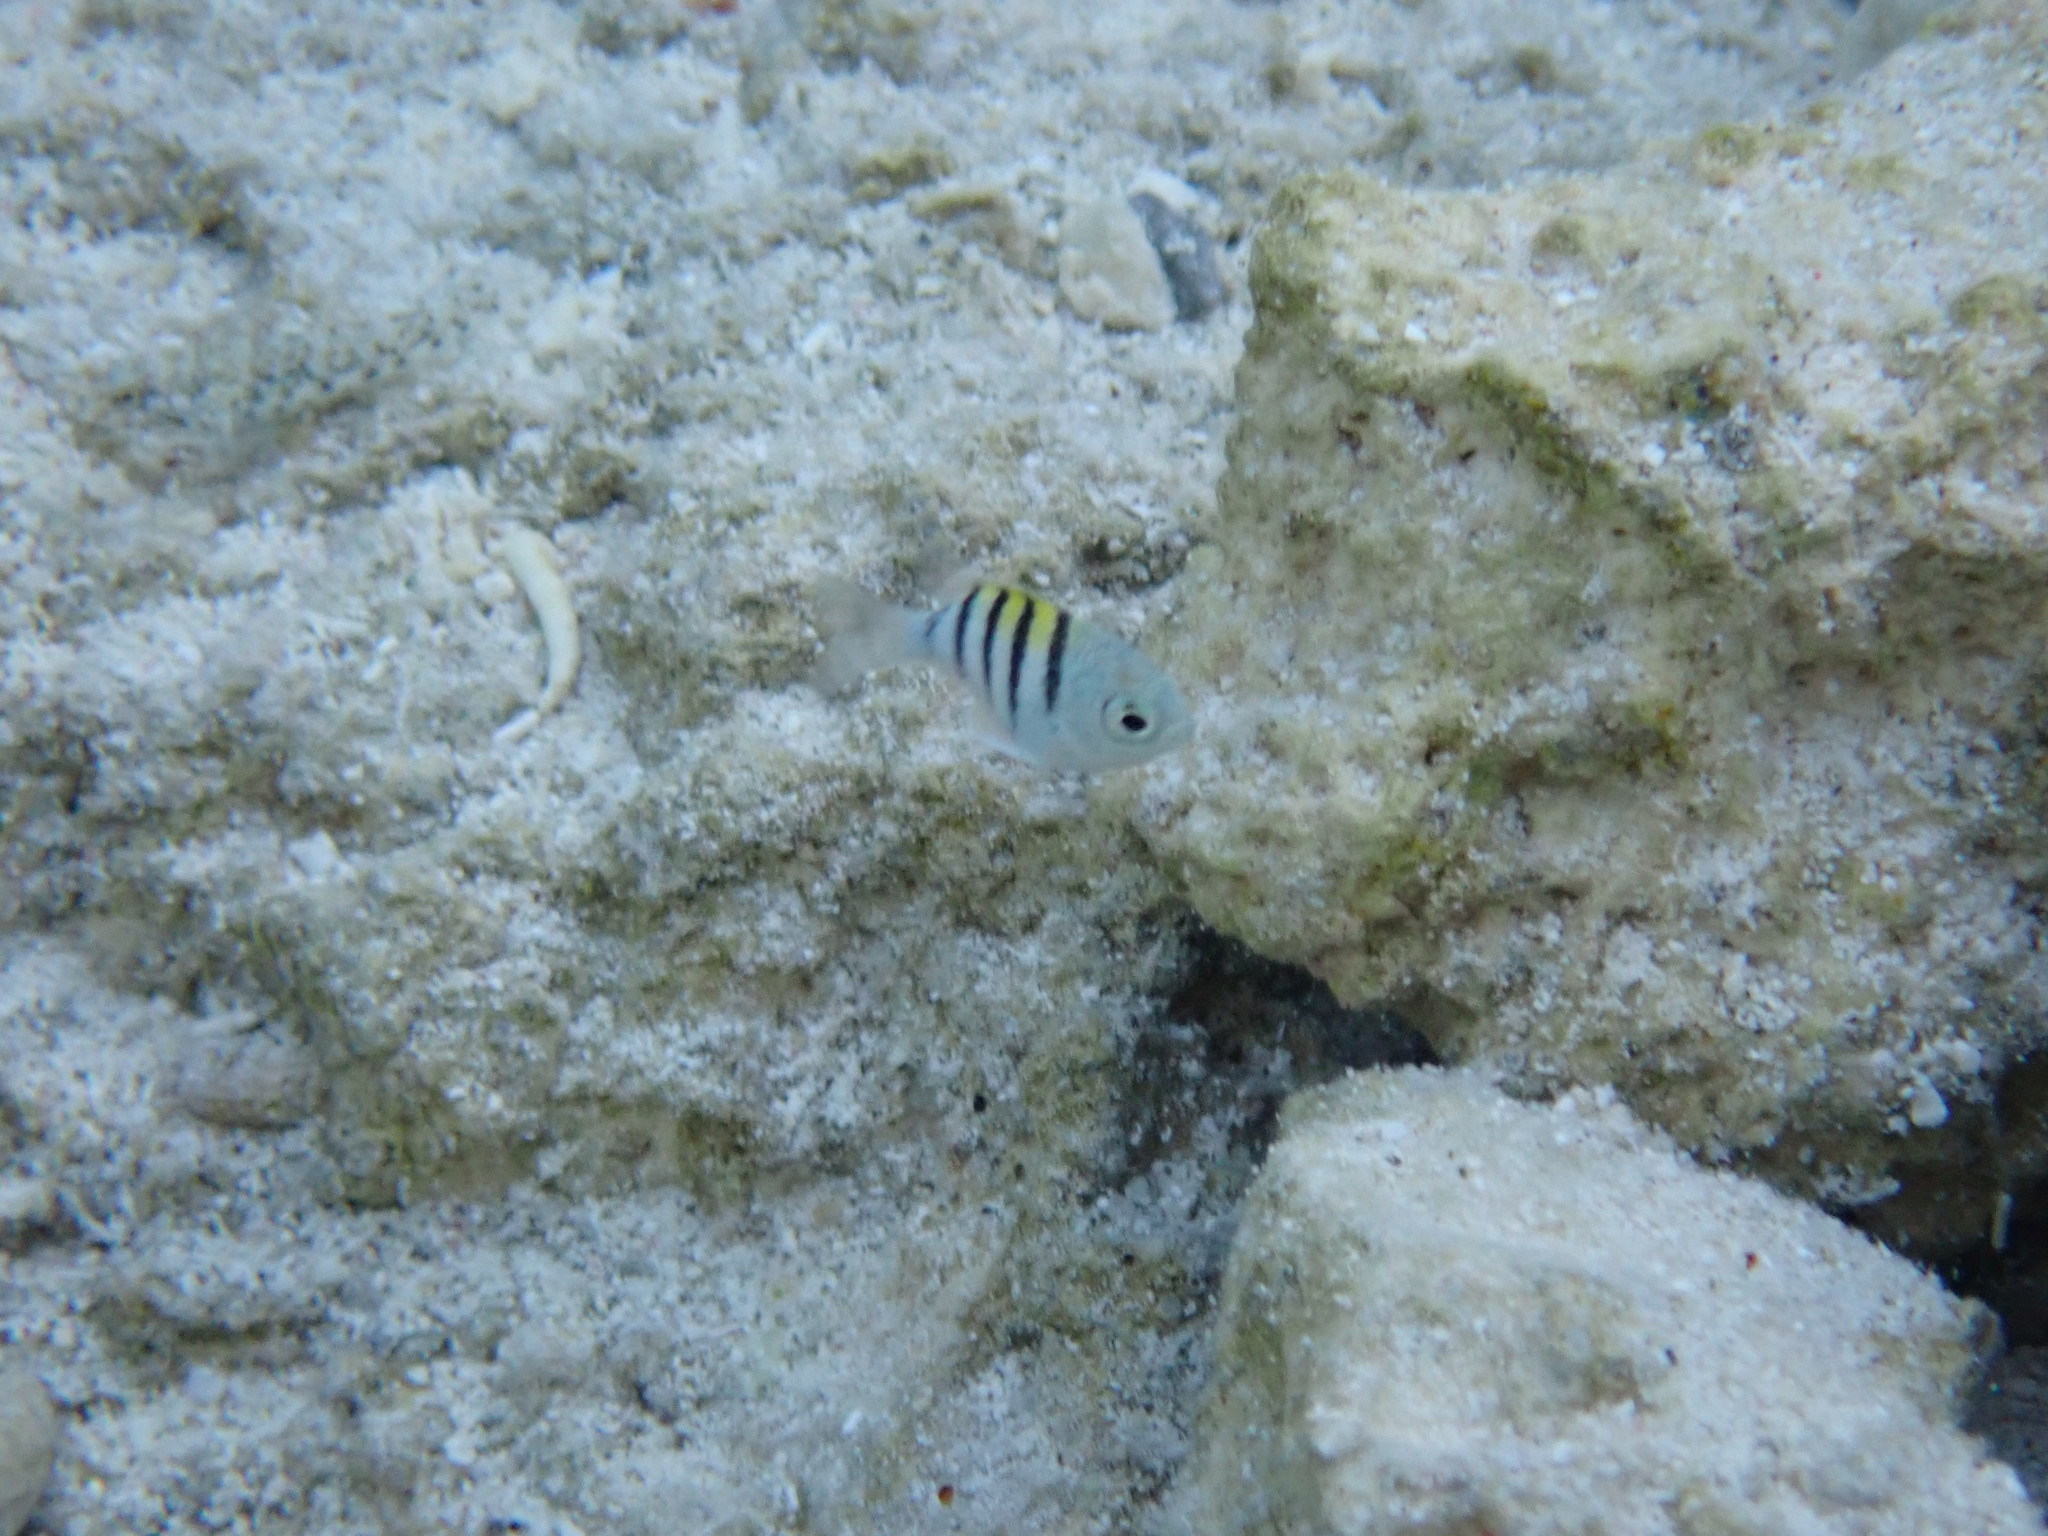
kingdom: Animalia
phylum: Chordata
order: Perciformes
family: Pomacentridae
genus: Abudefduf
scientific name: Abudefduf saxatilis
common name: Sergeant major
